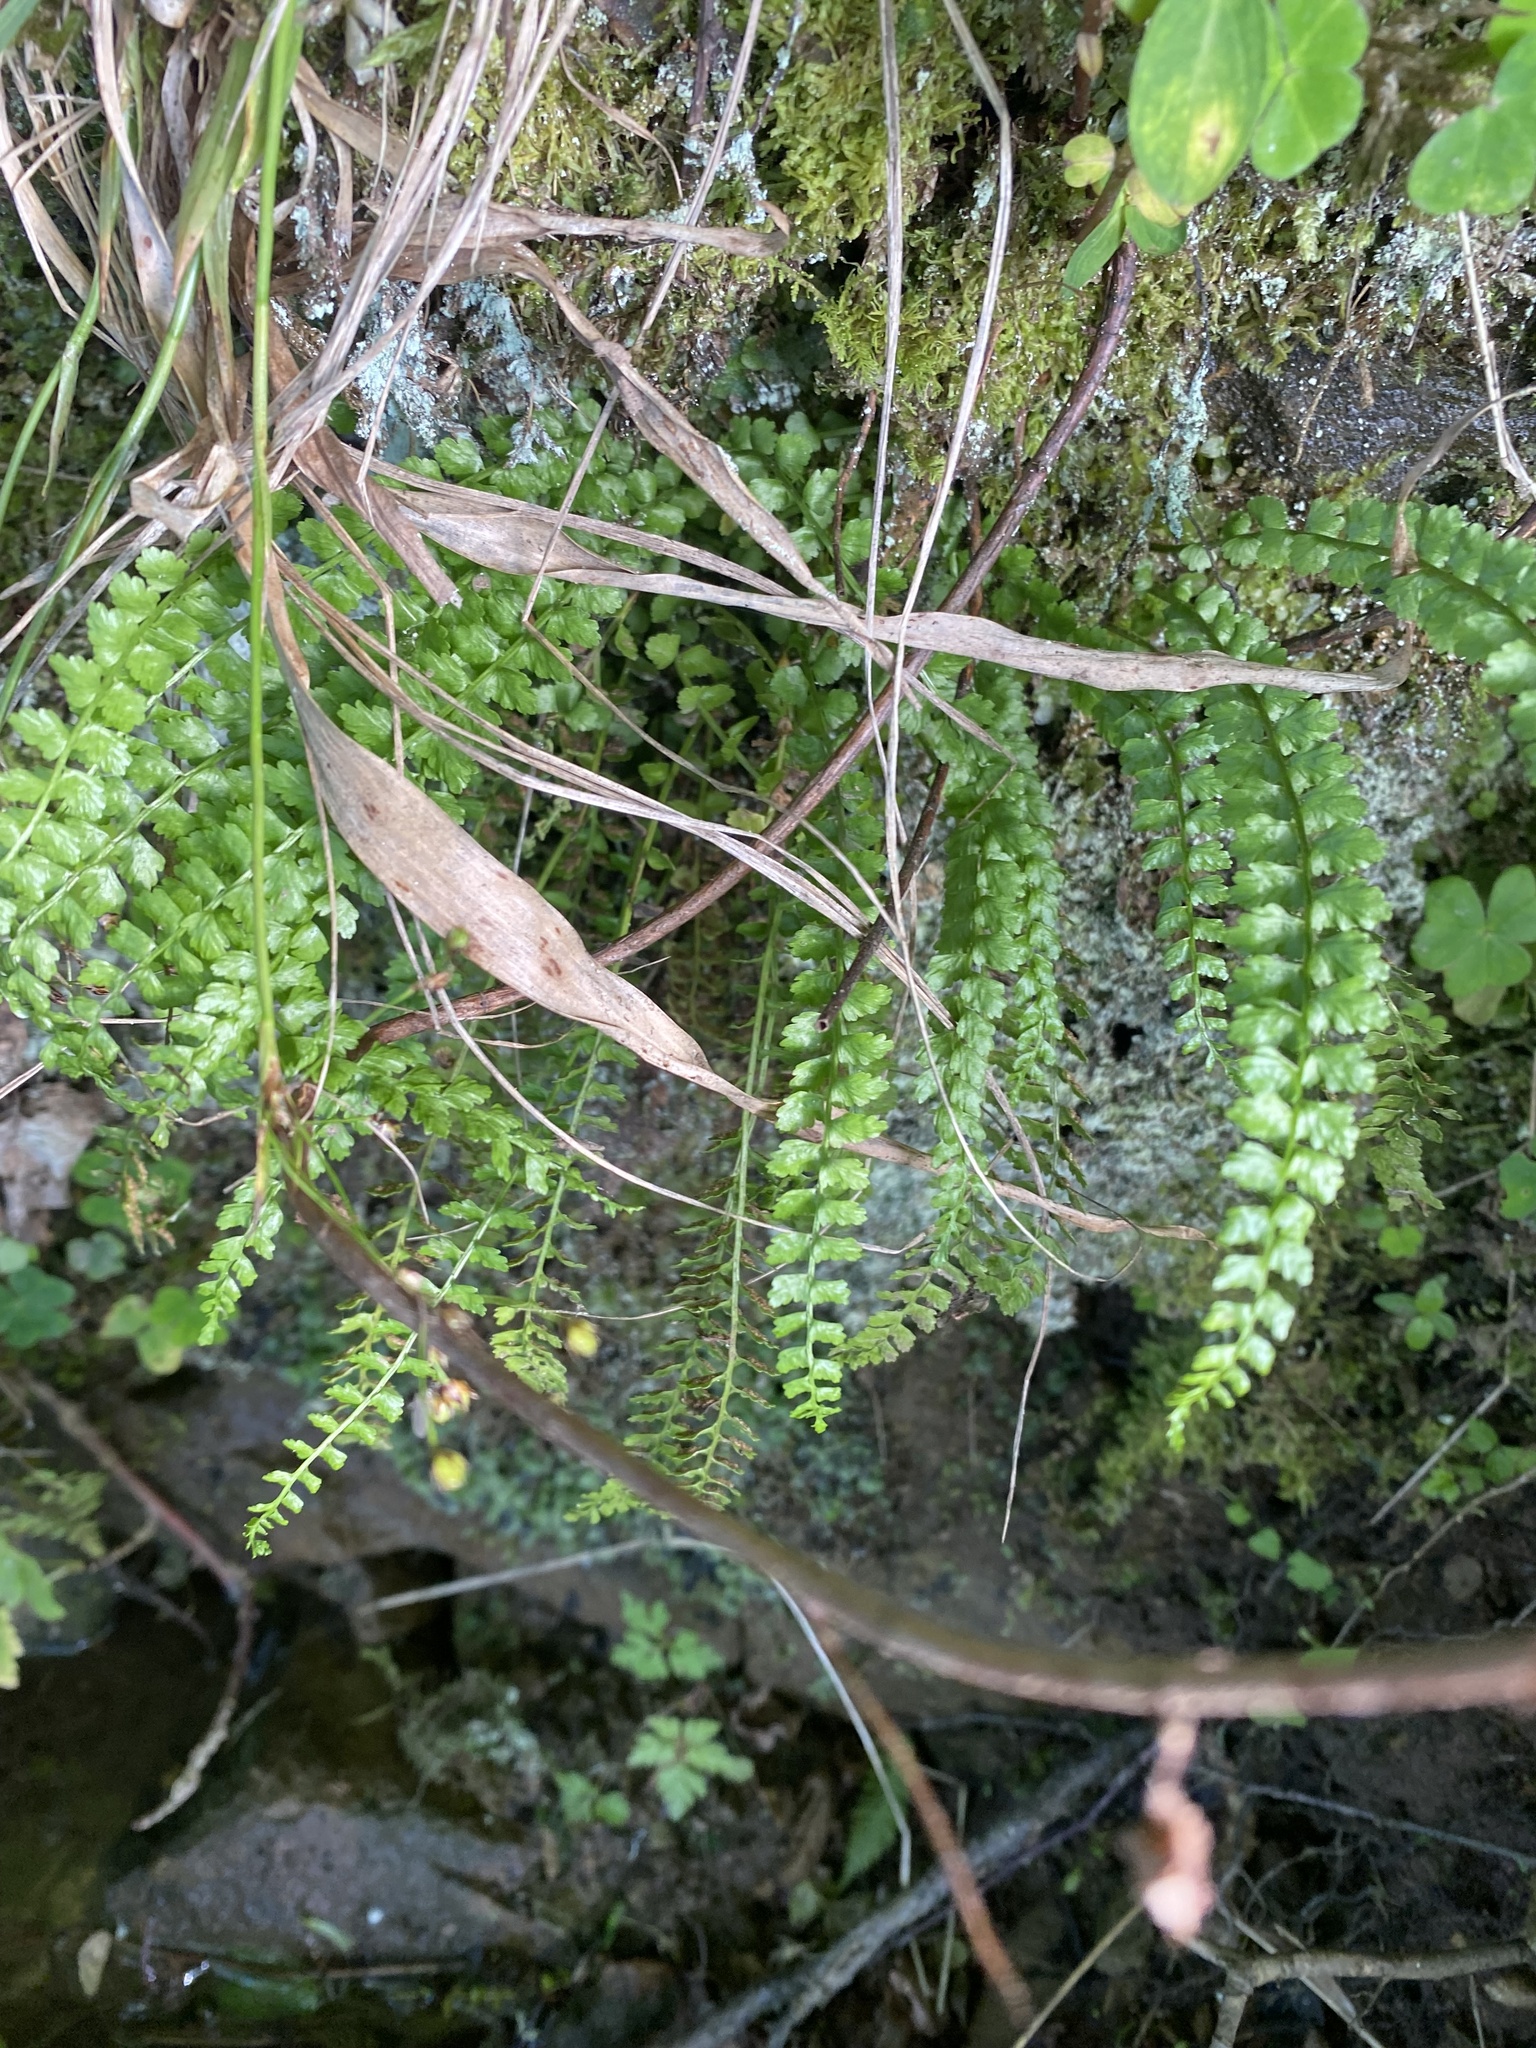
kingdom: Plantae
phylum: Tracheophyta
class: Polypodiopsida
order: Polypodiales
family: Aspleniaceae
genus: Asplenium
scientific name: Asplenium viride
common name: Green spleenwort
